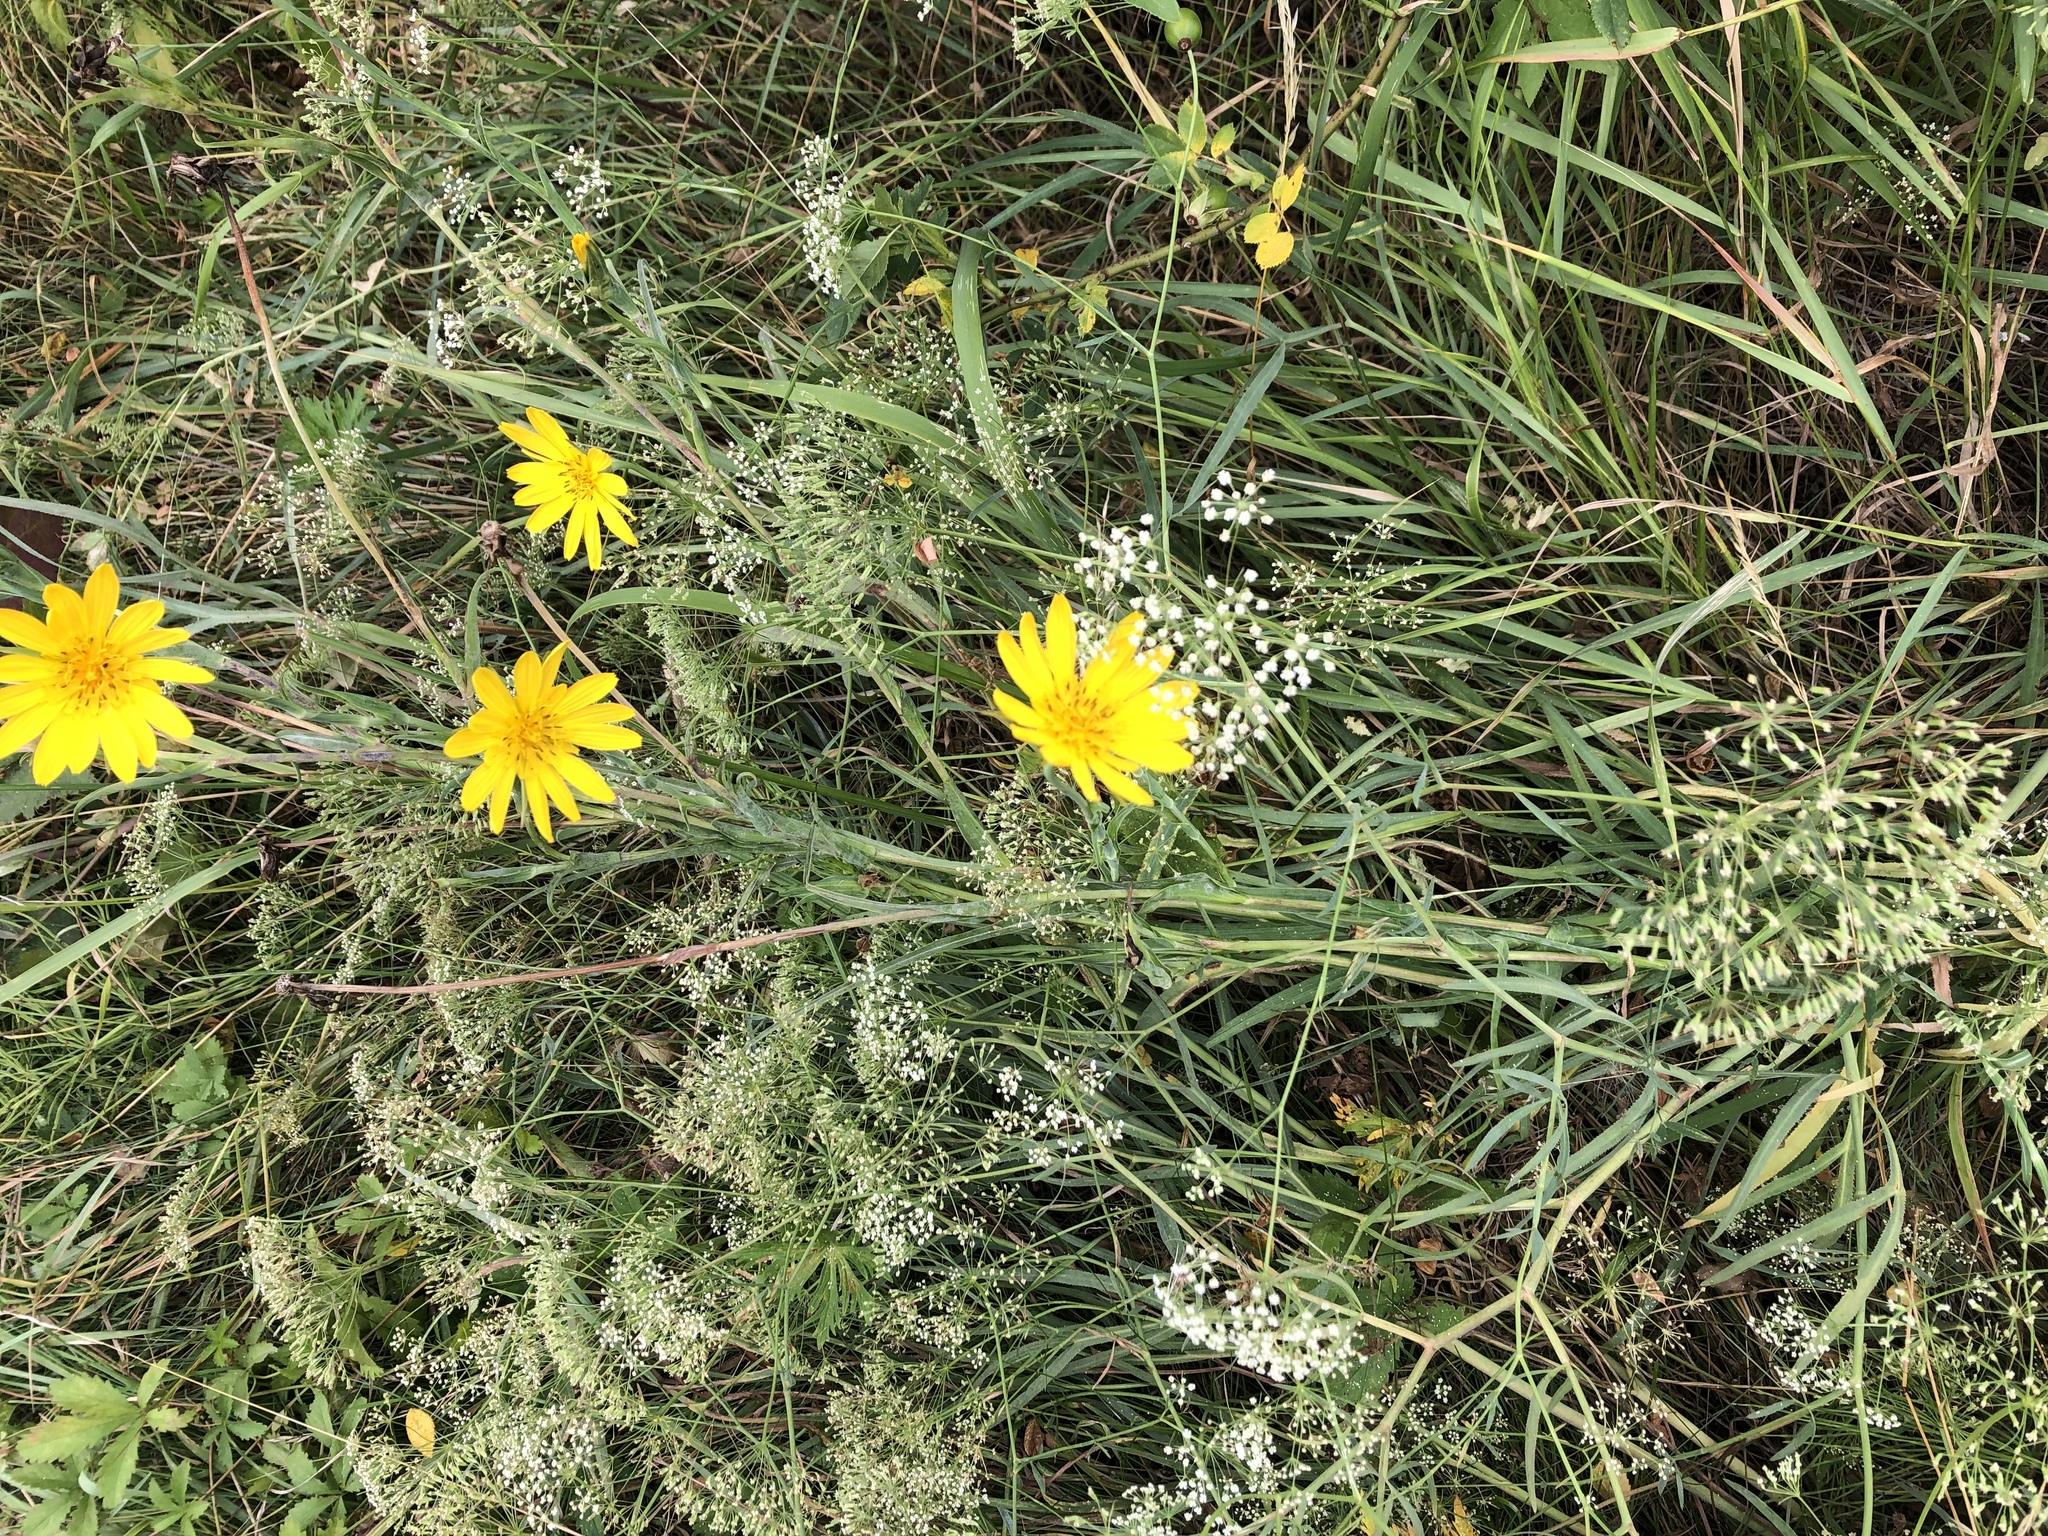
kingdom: Plantae
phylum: Tracheophyta
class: Magnoliopsida
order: Asterales
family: Asteraceae
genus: Tragopogon
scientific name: Tragopogon orientalis
